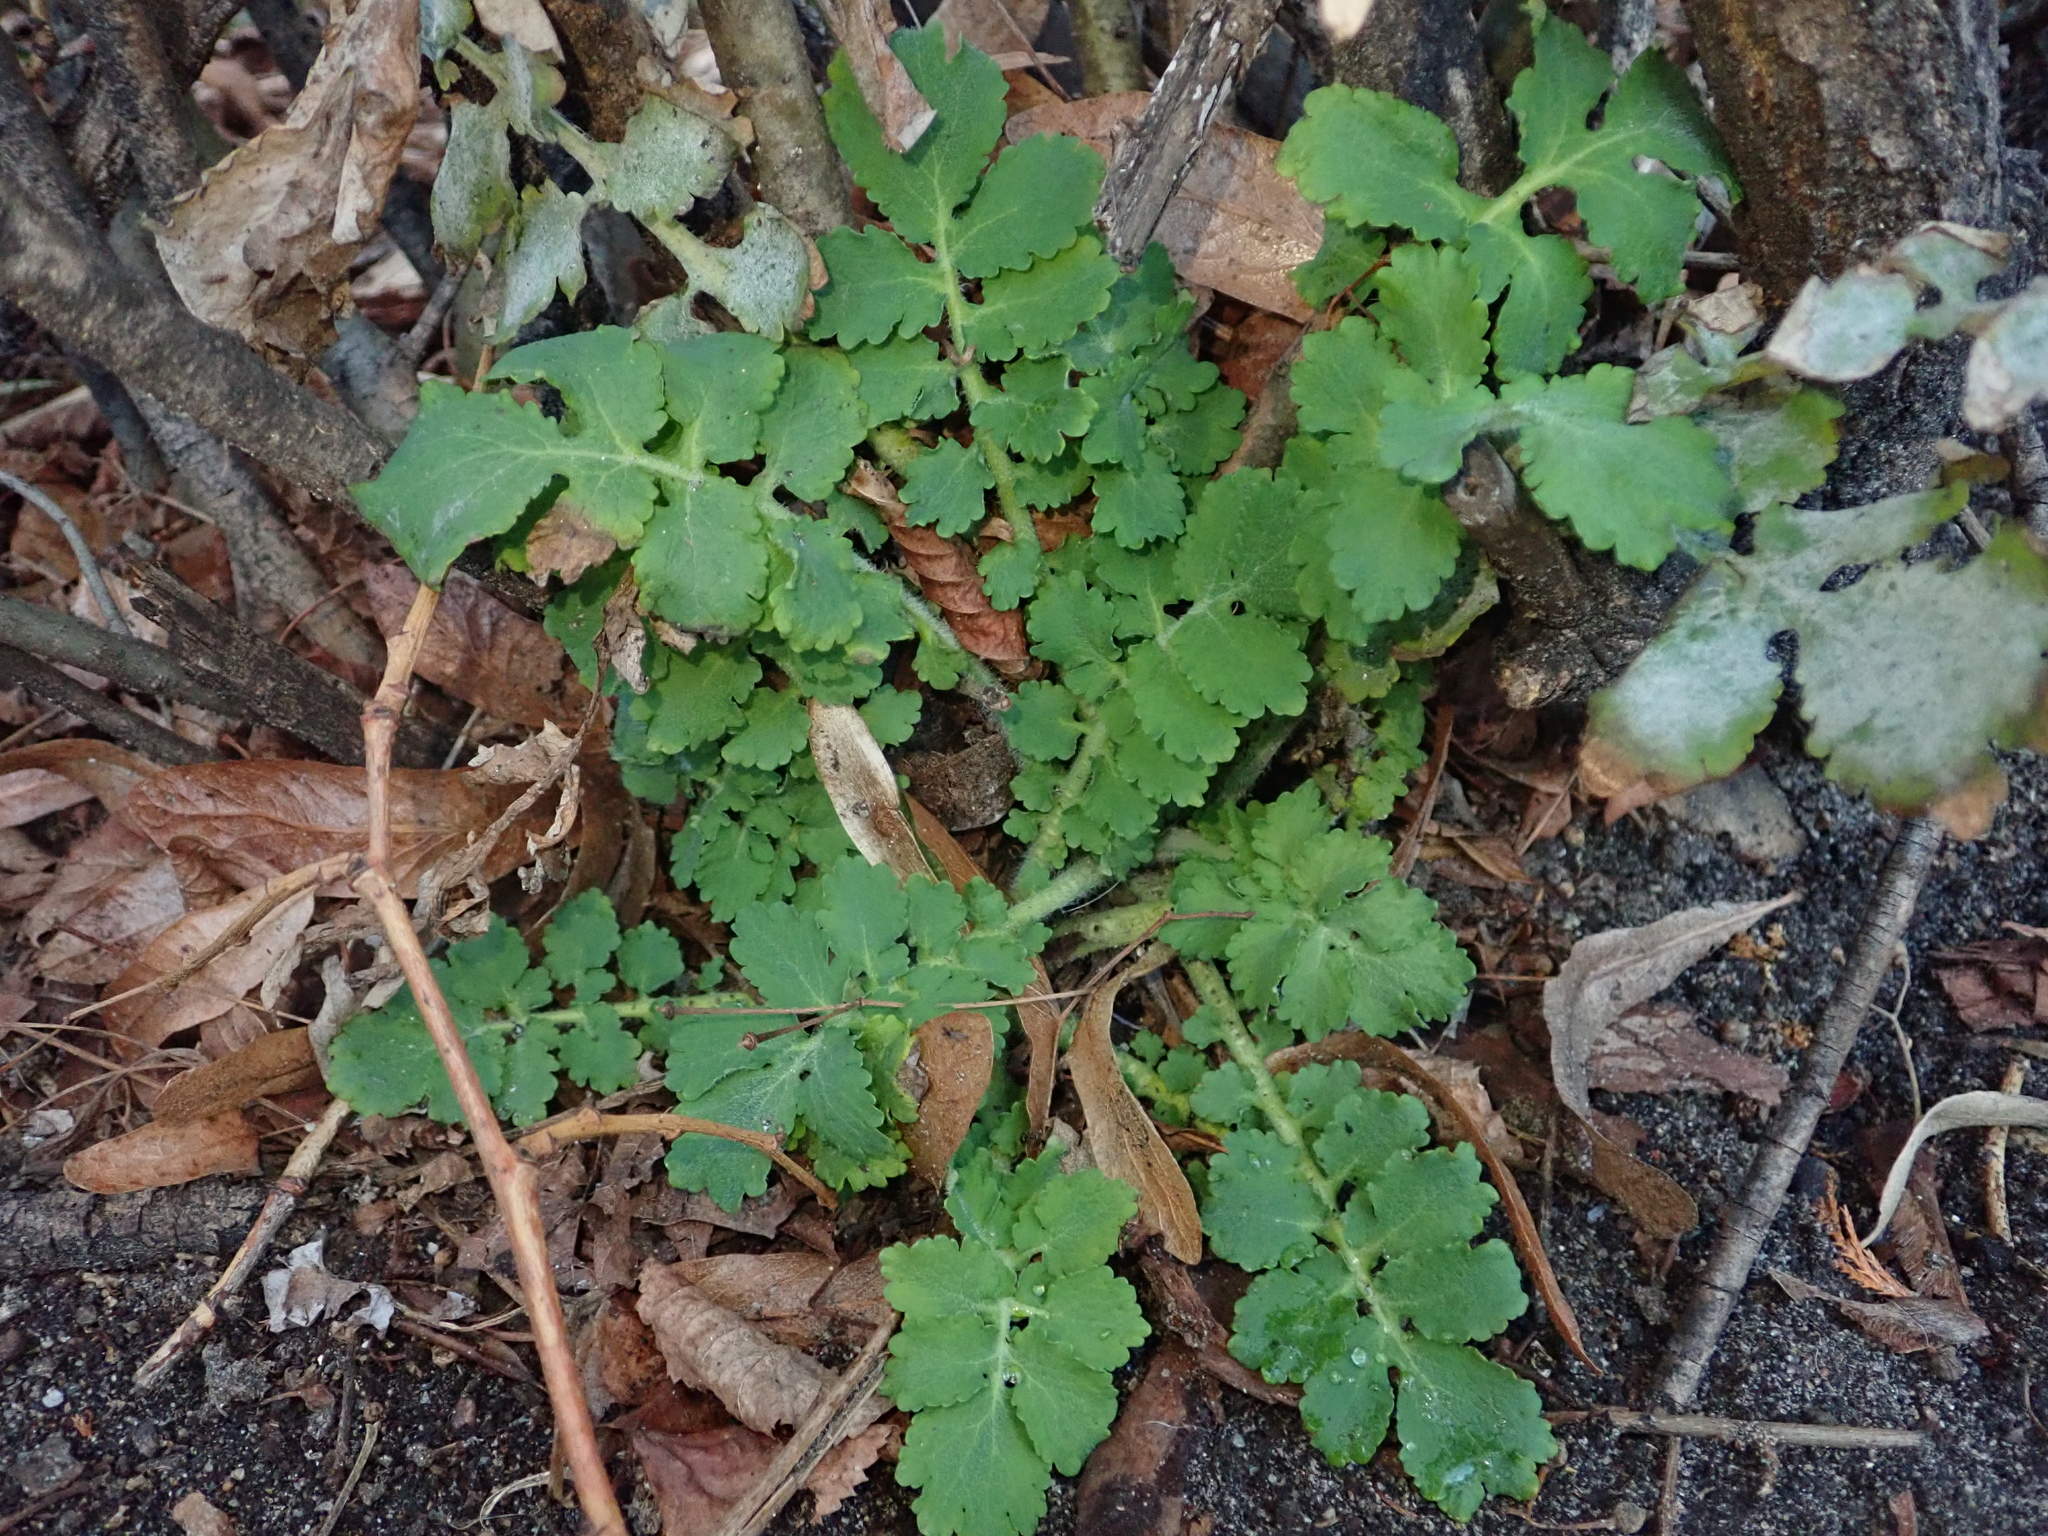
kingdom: Plantae
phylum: Tracheophyta
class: Magnoliopsida
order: Ranunculales
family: Papaveraceae
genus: Chelidonium
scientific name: Chelidonium majus
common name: Greater celandine
